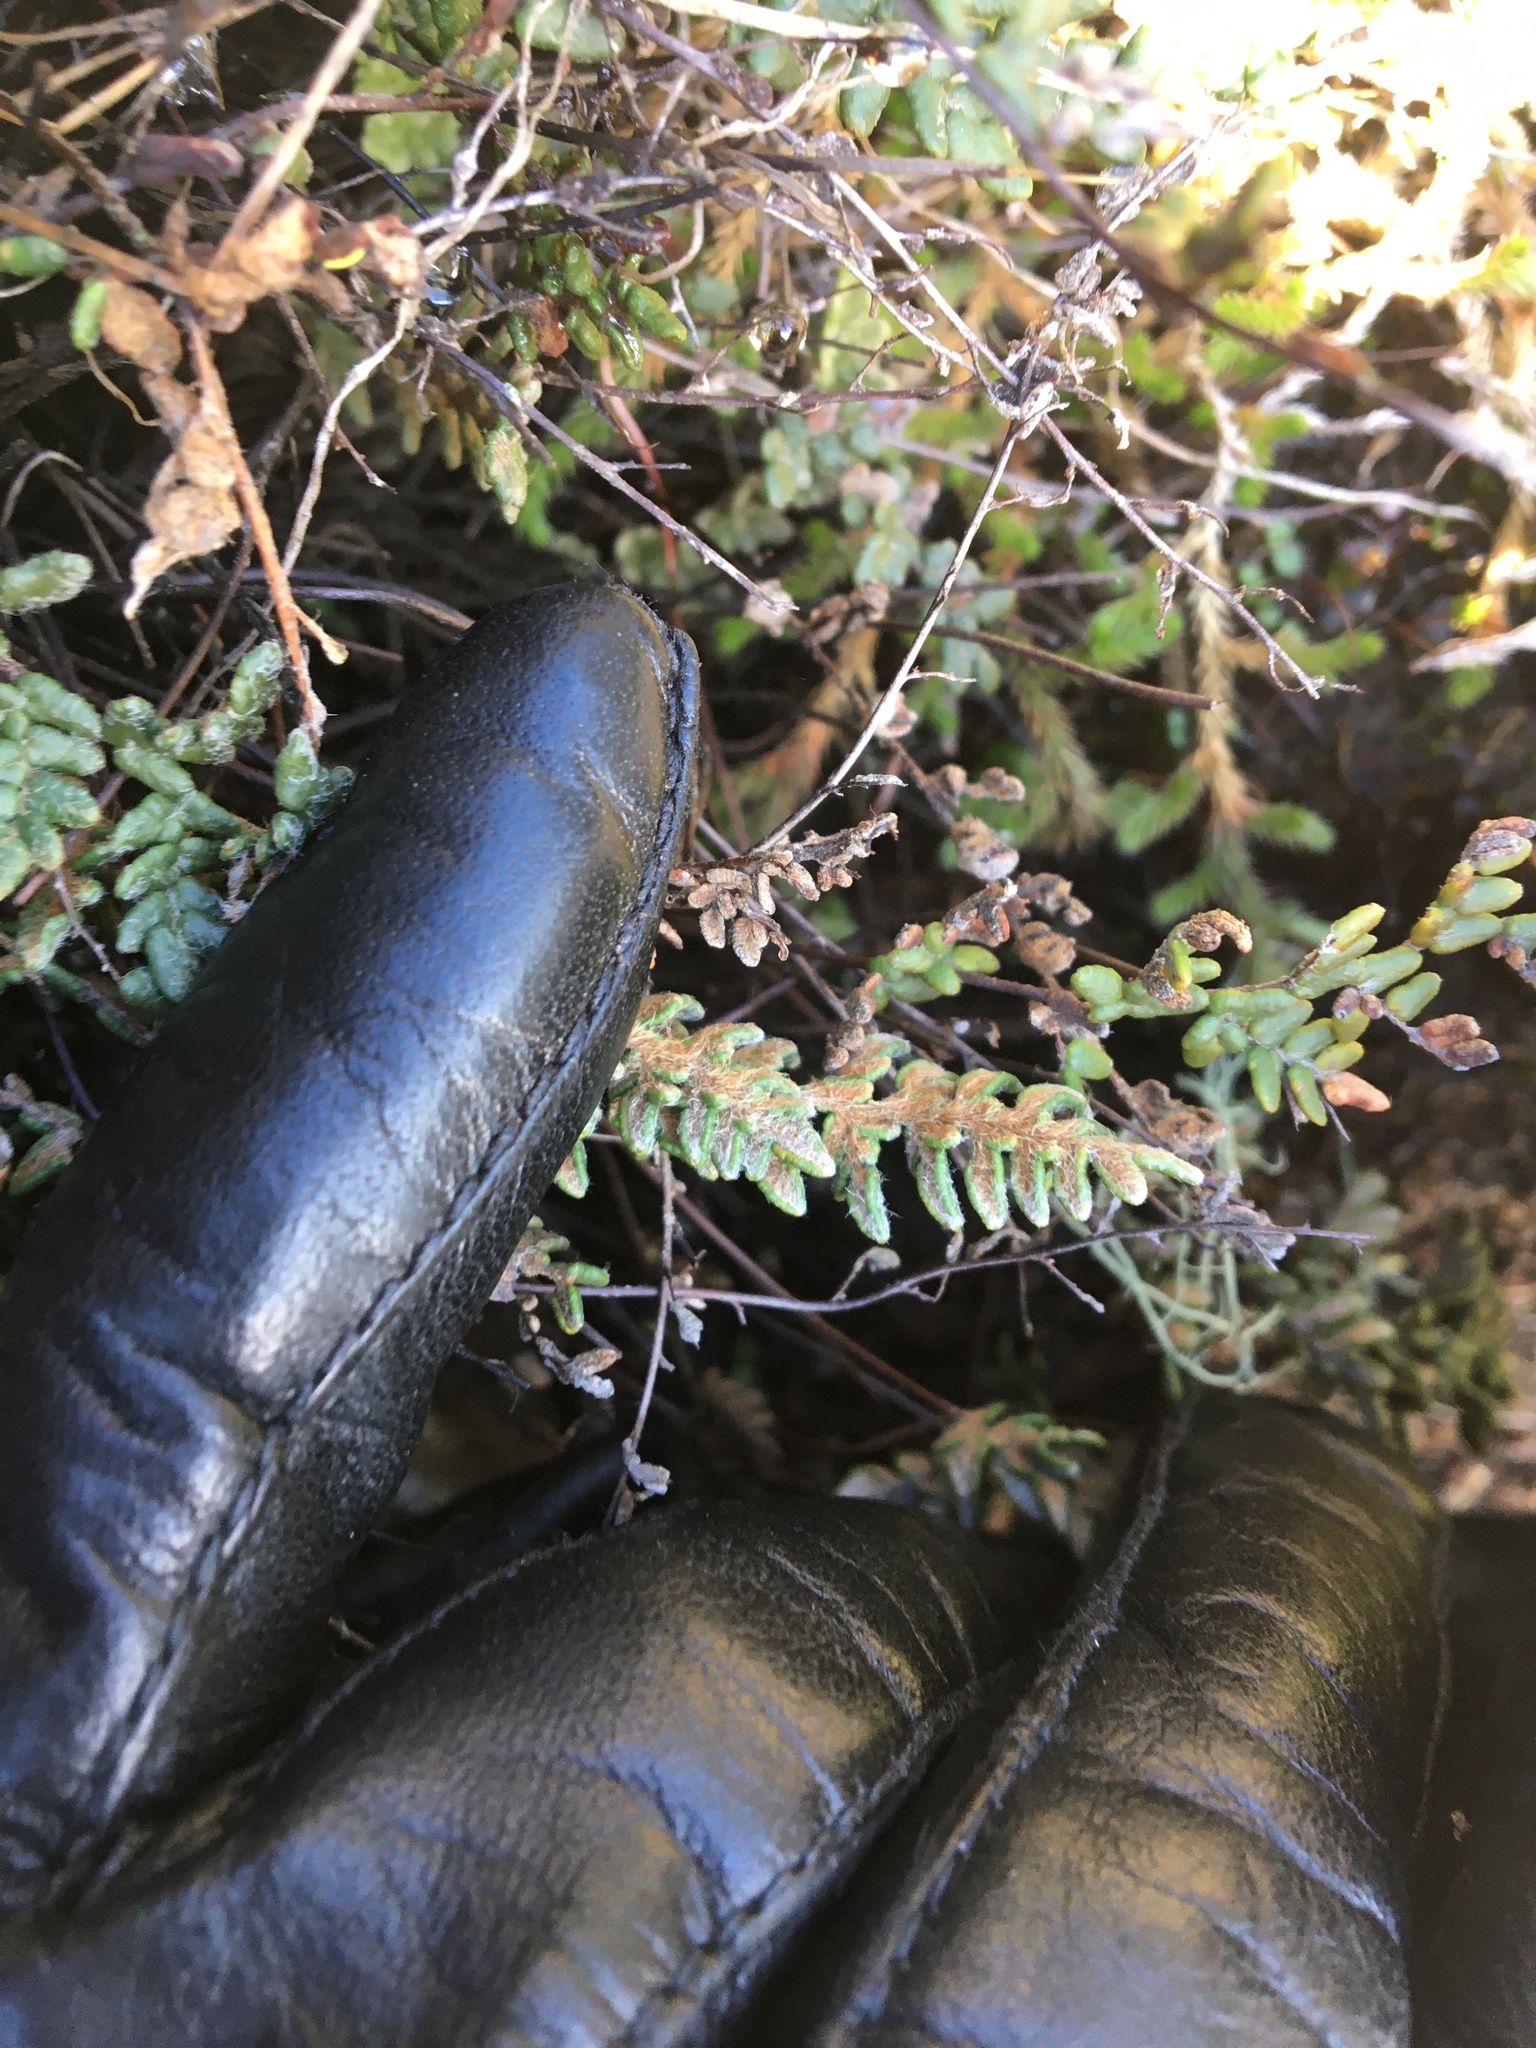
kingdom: Plantae
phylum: Tracheophyta
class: Polypodiopsida
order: Polypodiales
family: Pteridaceae
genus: Myriopteris
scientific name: Myriopteris gracillima
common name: Lace fern
